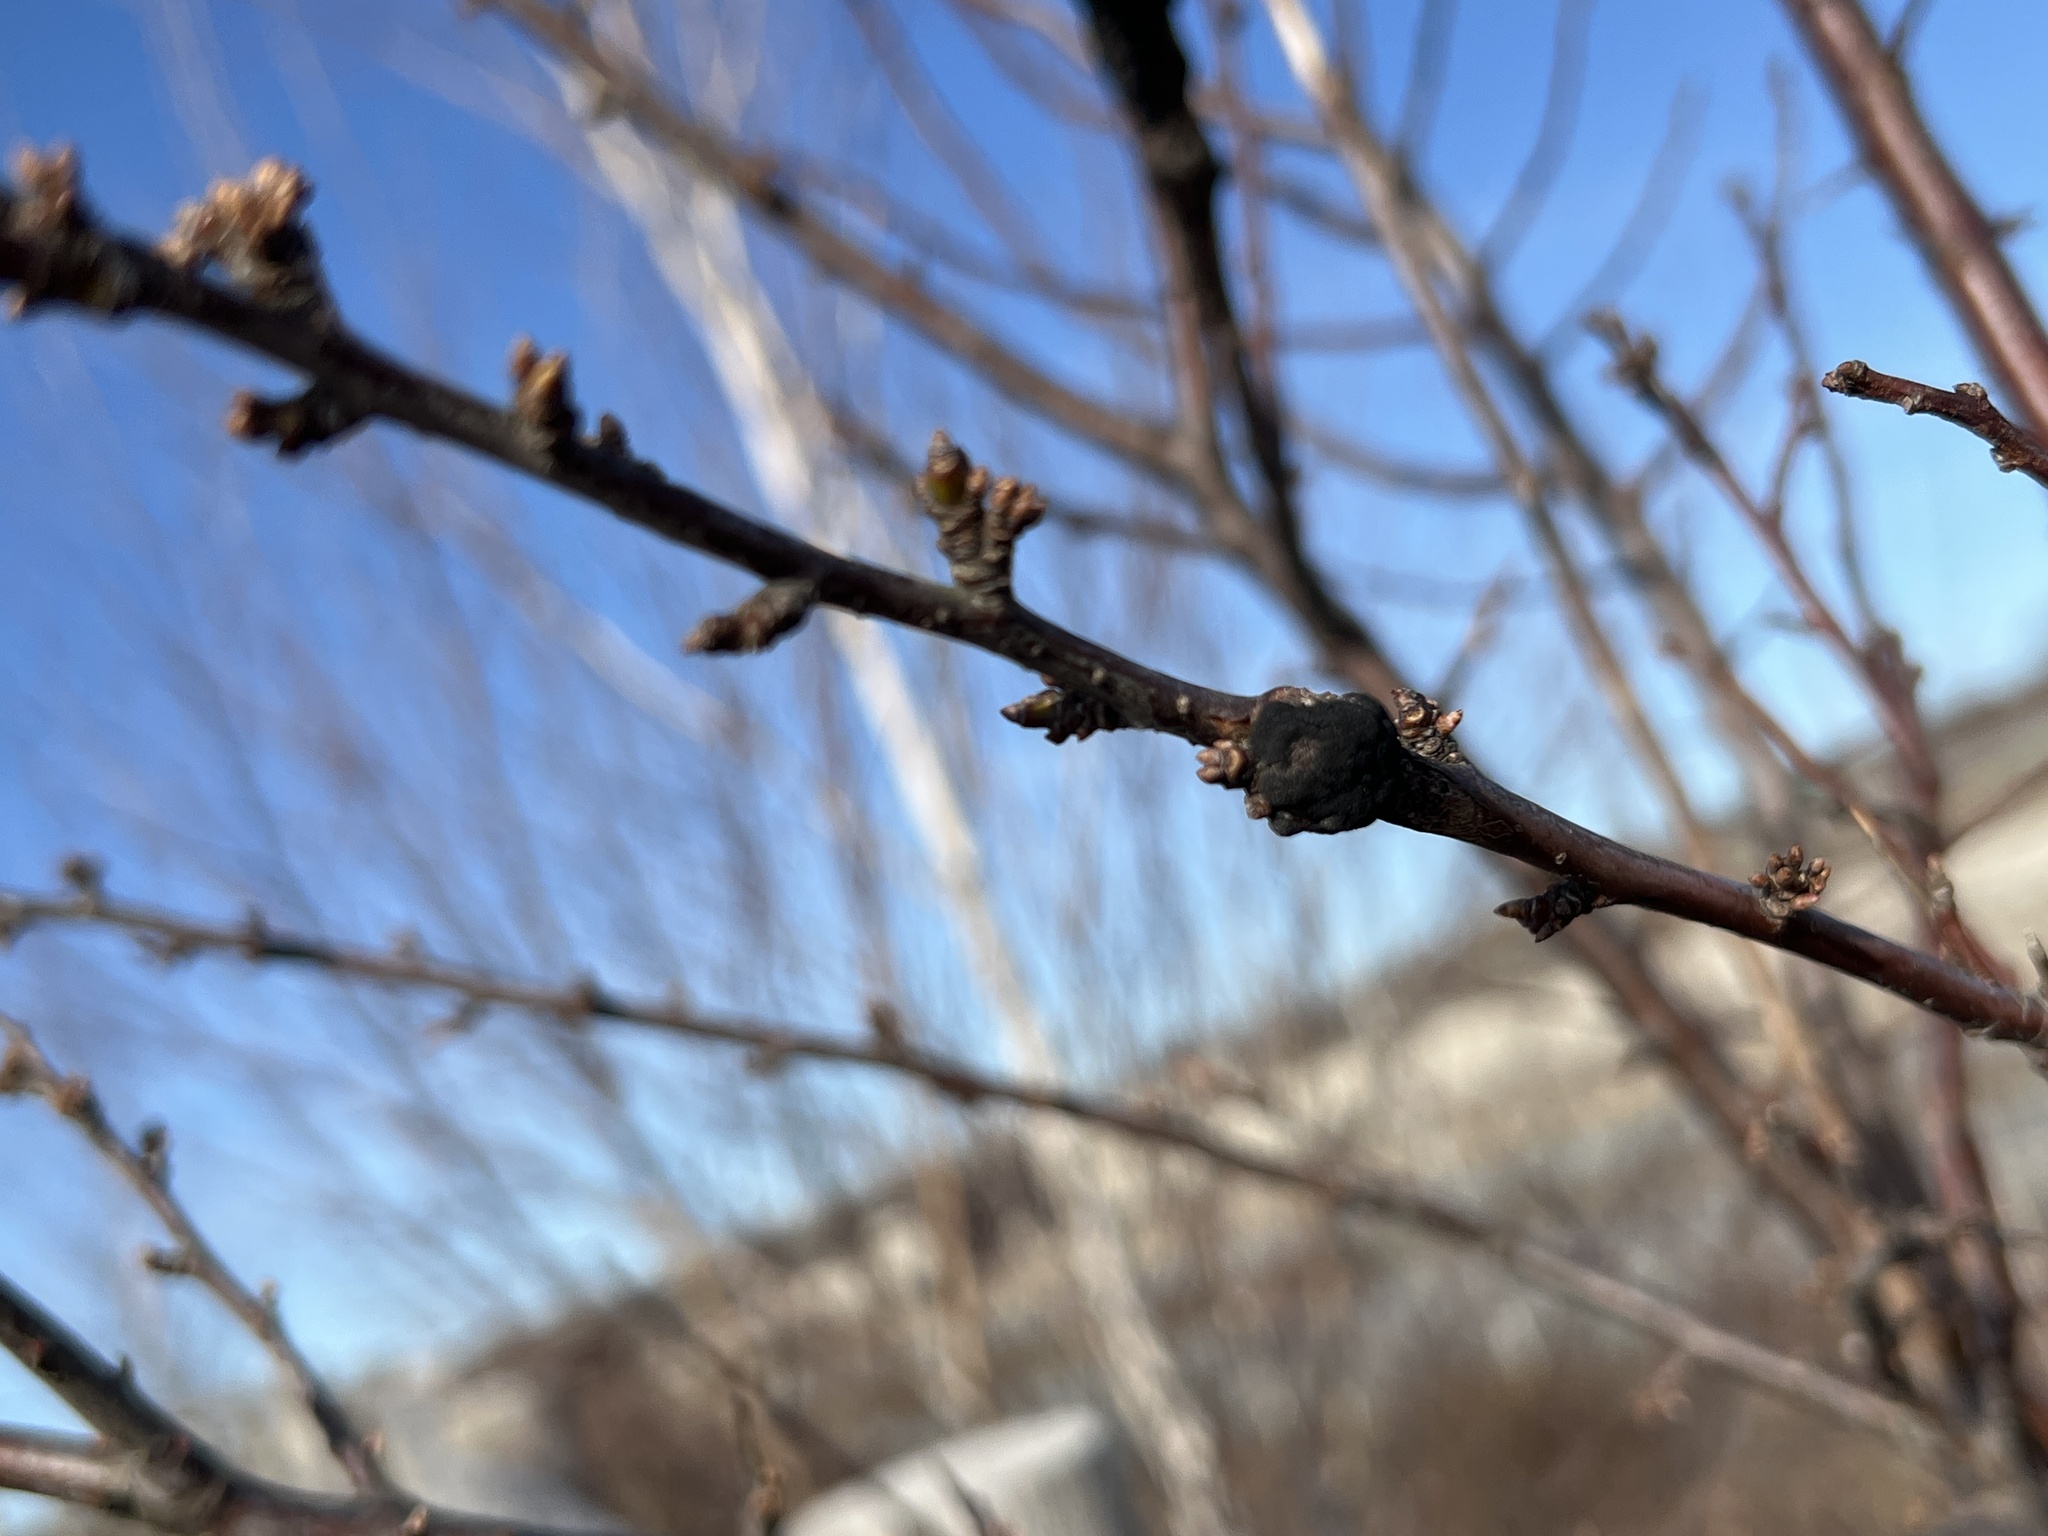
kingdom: Fungi
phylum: Ascomycota
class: Dothideomycetes
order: Venturiales
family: Venturiaceae
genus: Apiosporina
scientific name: Apiosporina morbosa
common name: Black knot
